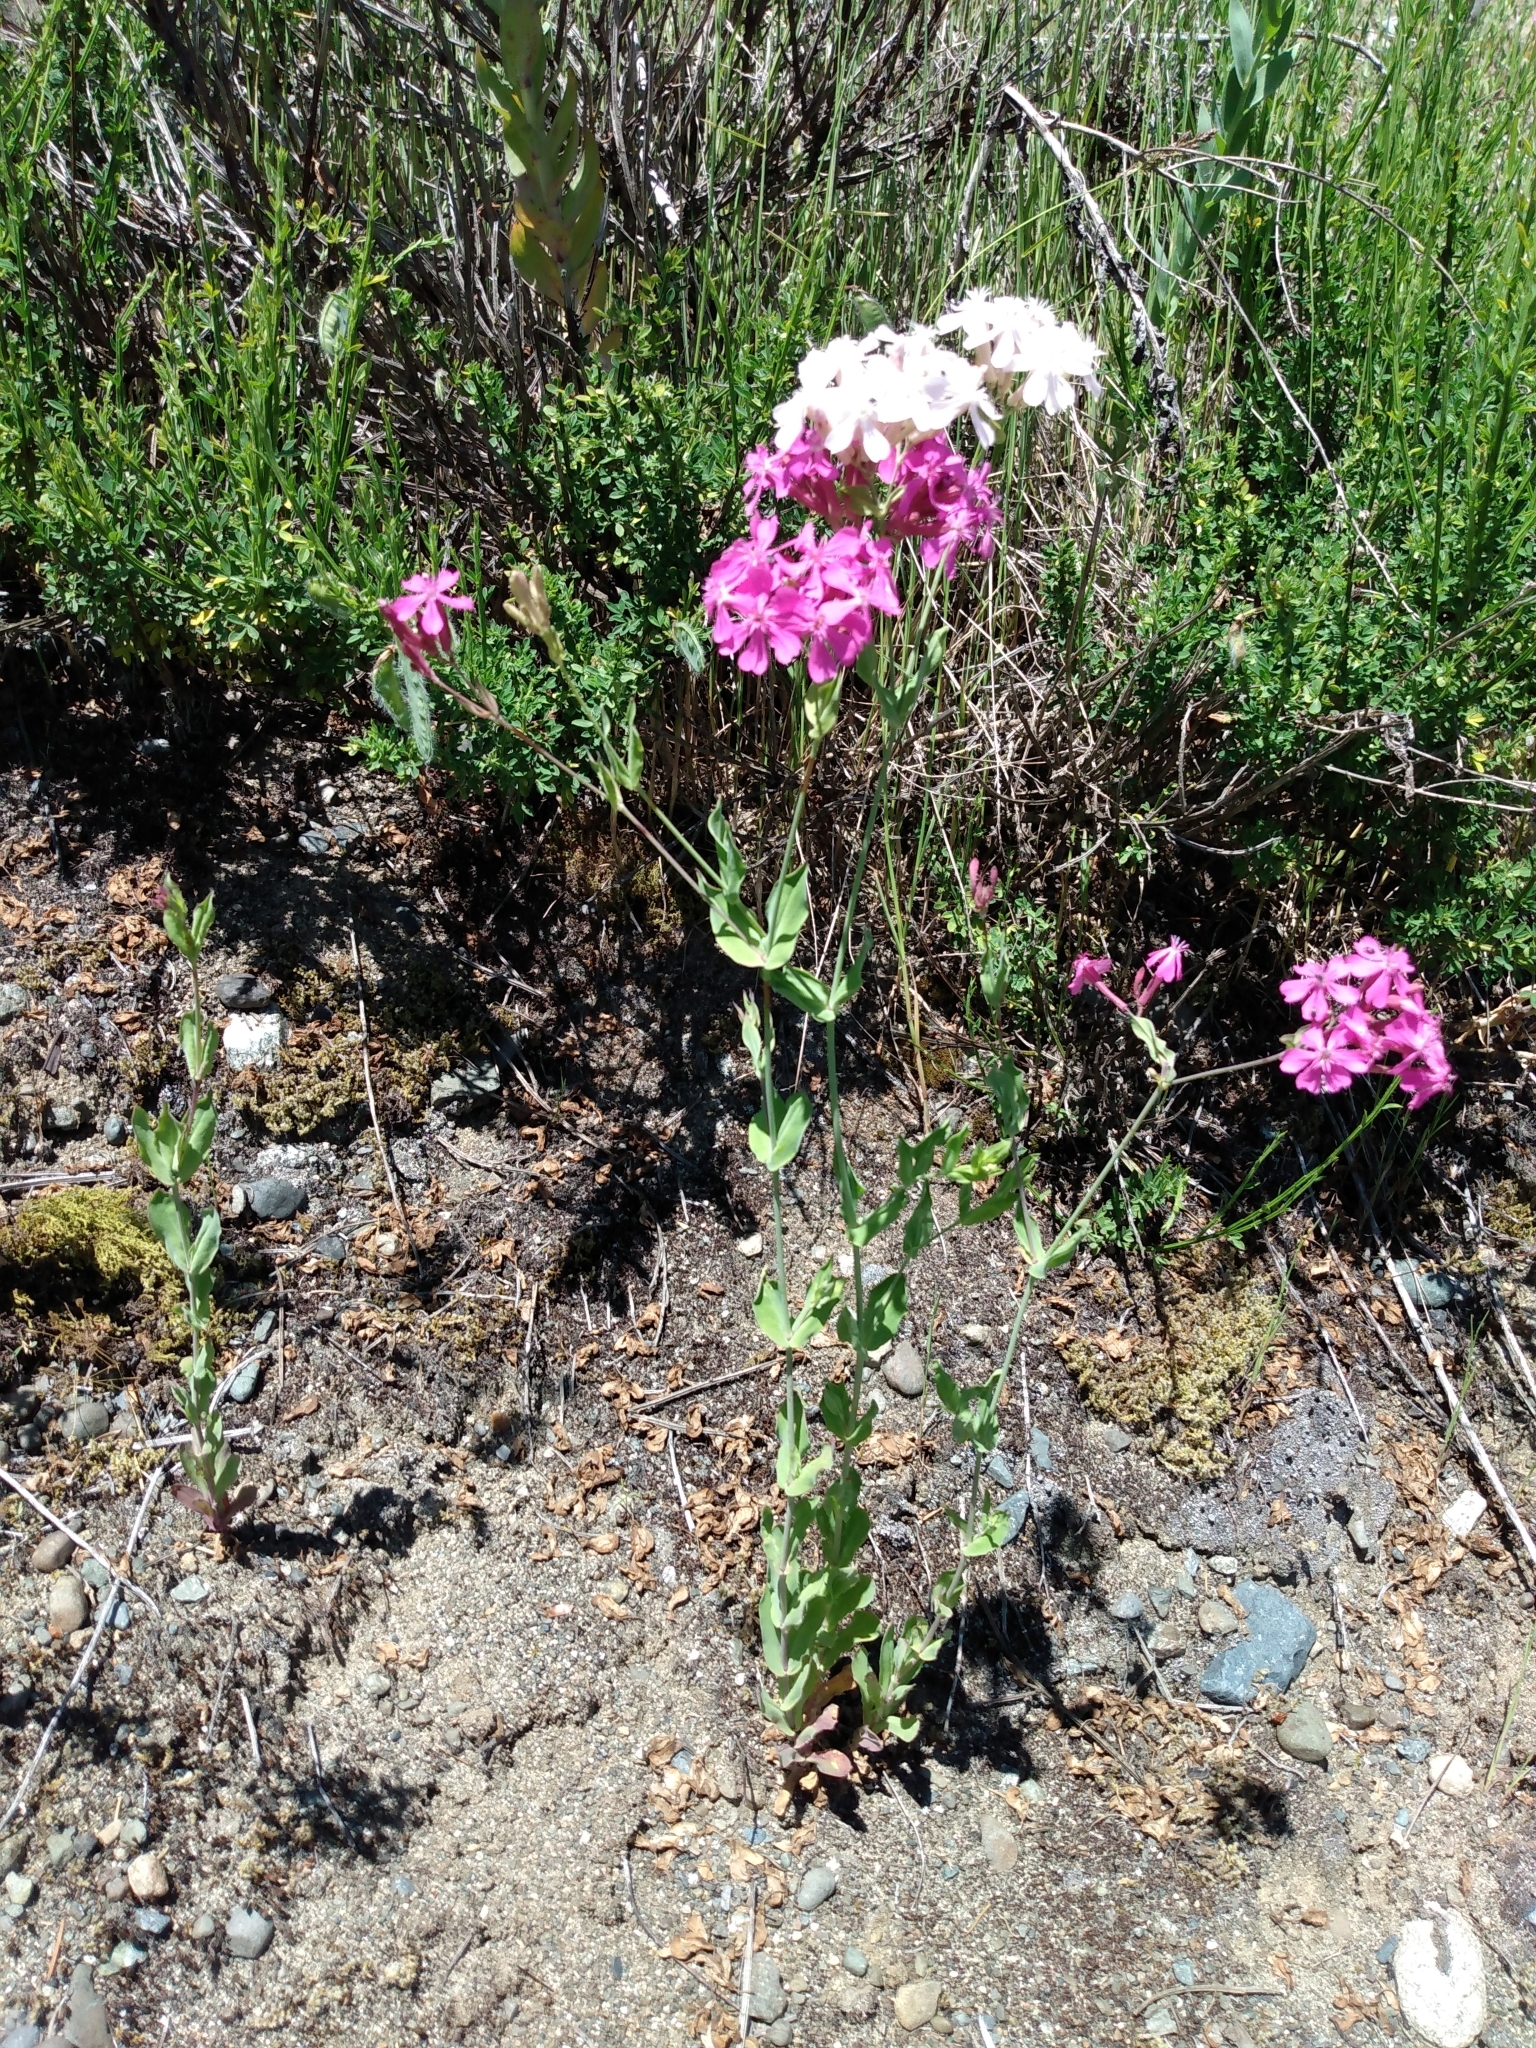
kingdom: Plantae
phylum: Tracheophyta
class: Magnoliopsida
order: Caryophyllales
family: Caryophyllaceae
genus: Atocion
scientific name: Atocion armeria
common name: Sweet william catchfly
